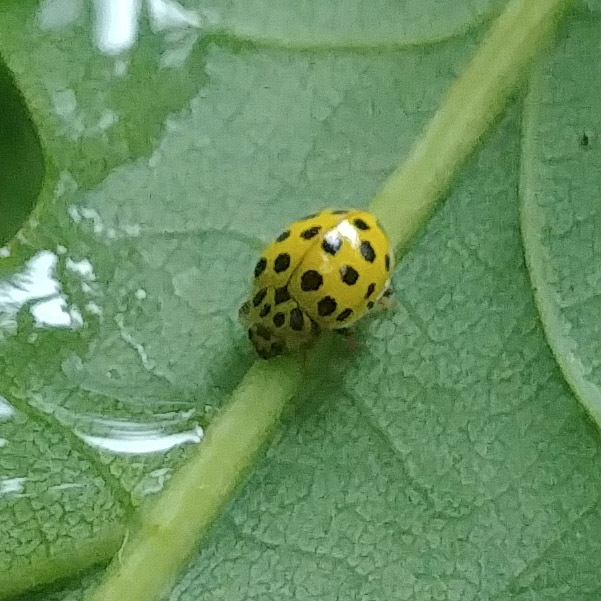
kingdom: Animalia
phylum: Arthropoda
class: Insecta
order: Coleoptera
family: Coccinellidae
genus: Psyllobora
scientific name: Psyllobora vigintiduopunctata
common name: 22-spot ladybird
